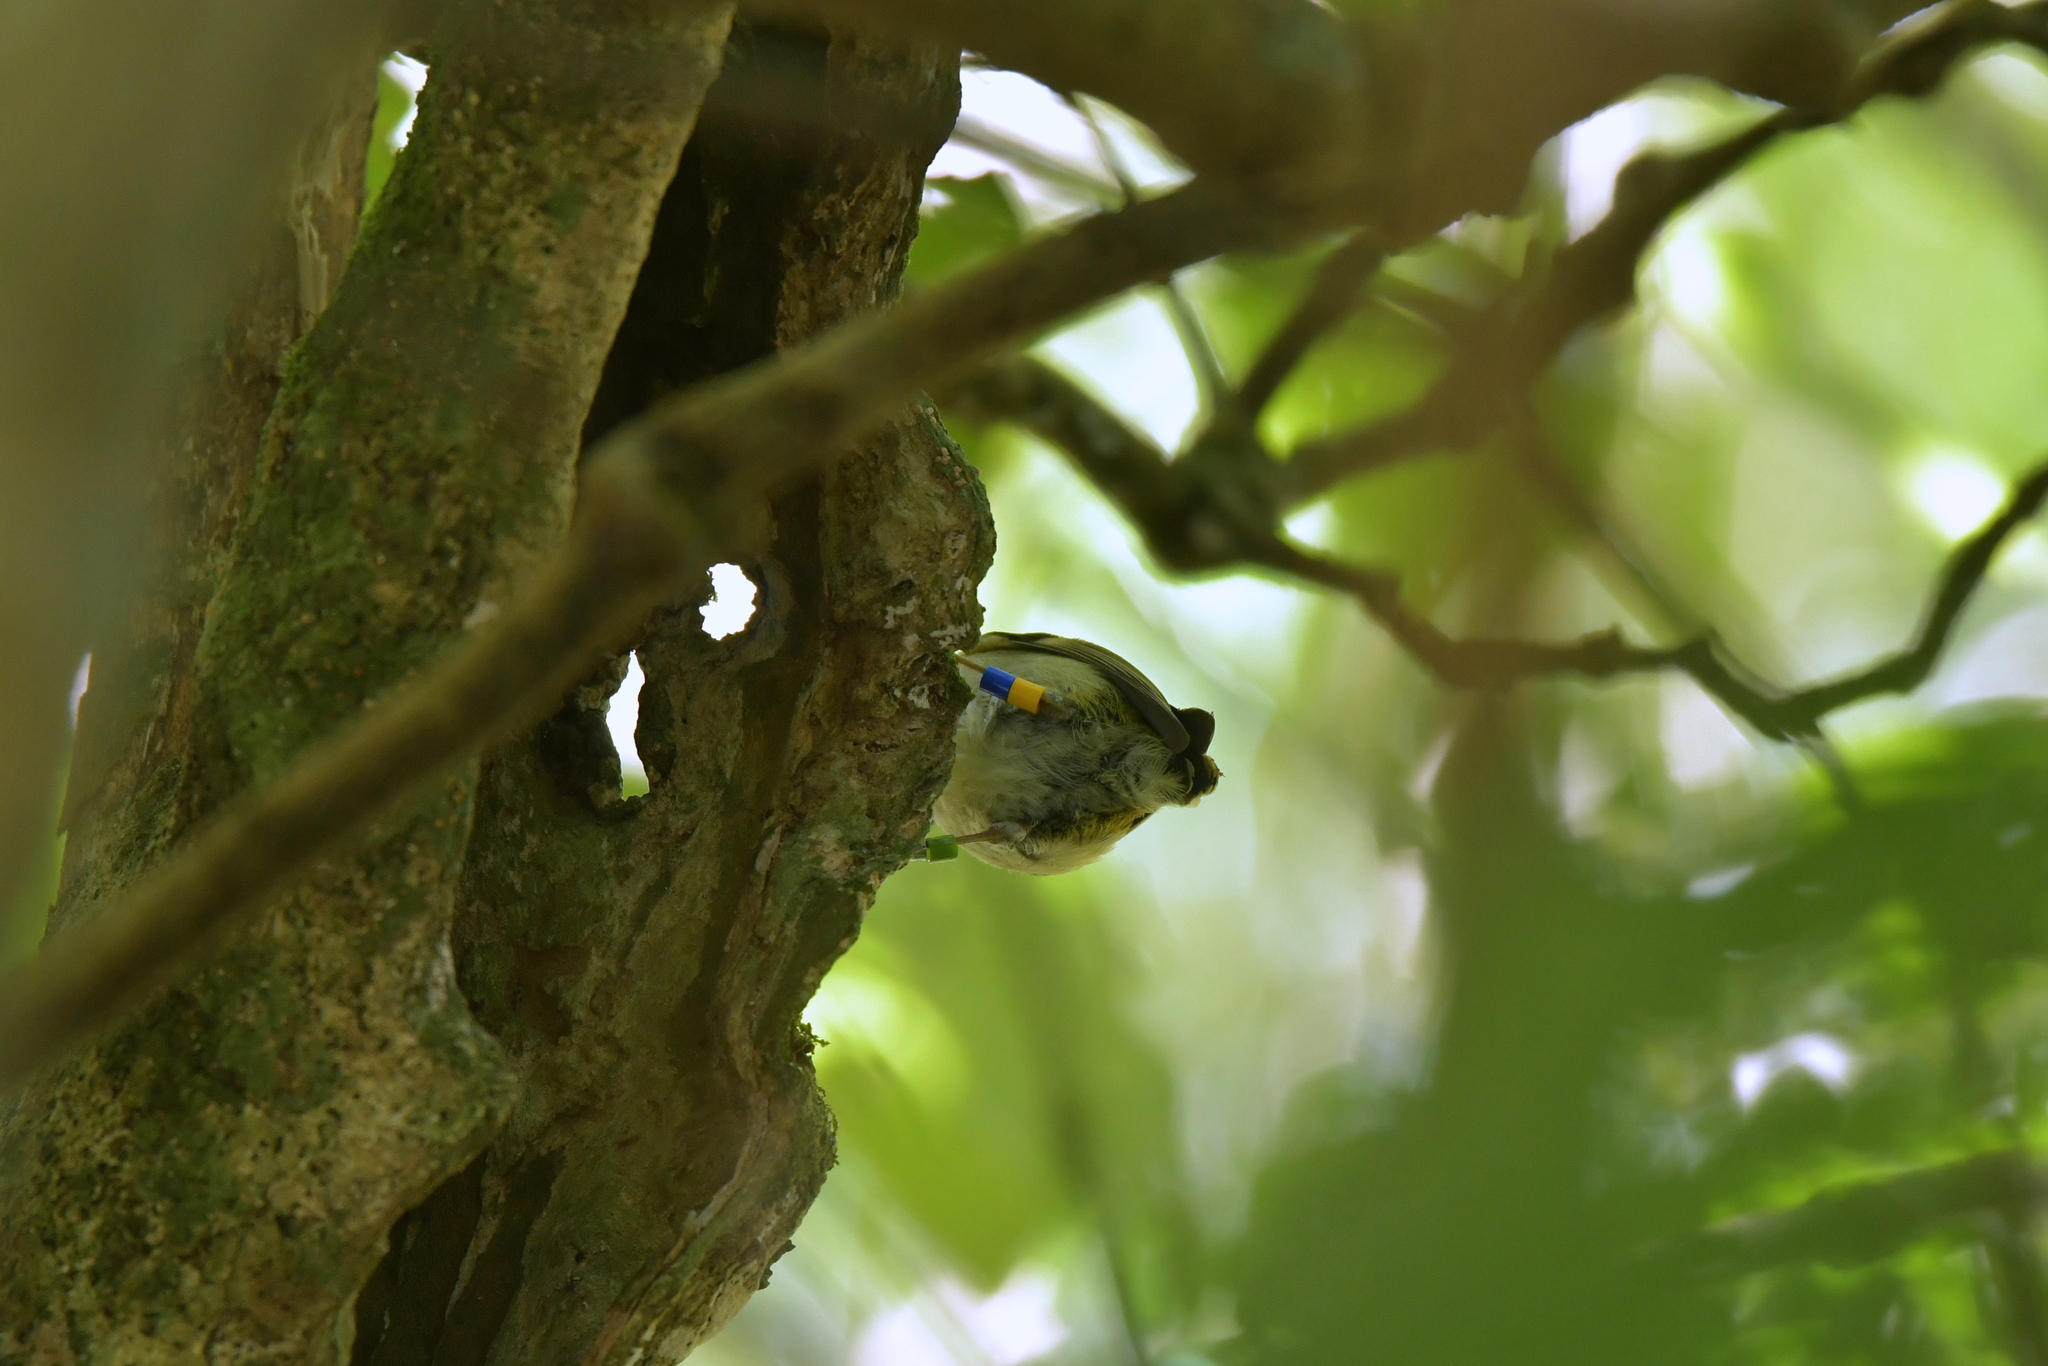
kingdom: Animalia
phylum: Chordata
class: Aves
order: Passeriformes
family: Acanthisittidae
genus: Acanthisitta
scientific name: Acanthisitta chloris
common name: Rifleman
